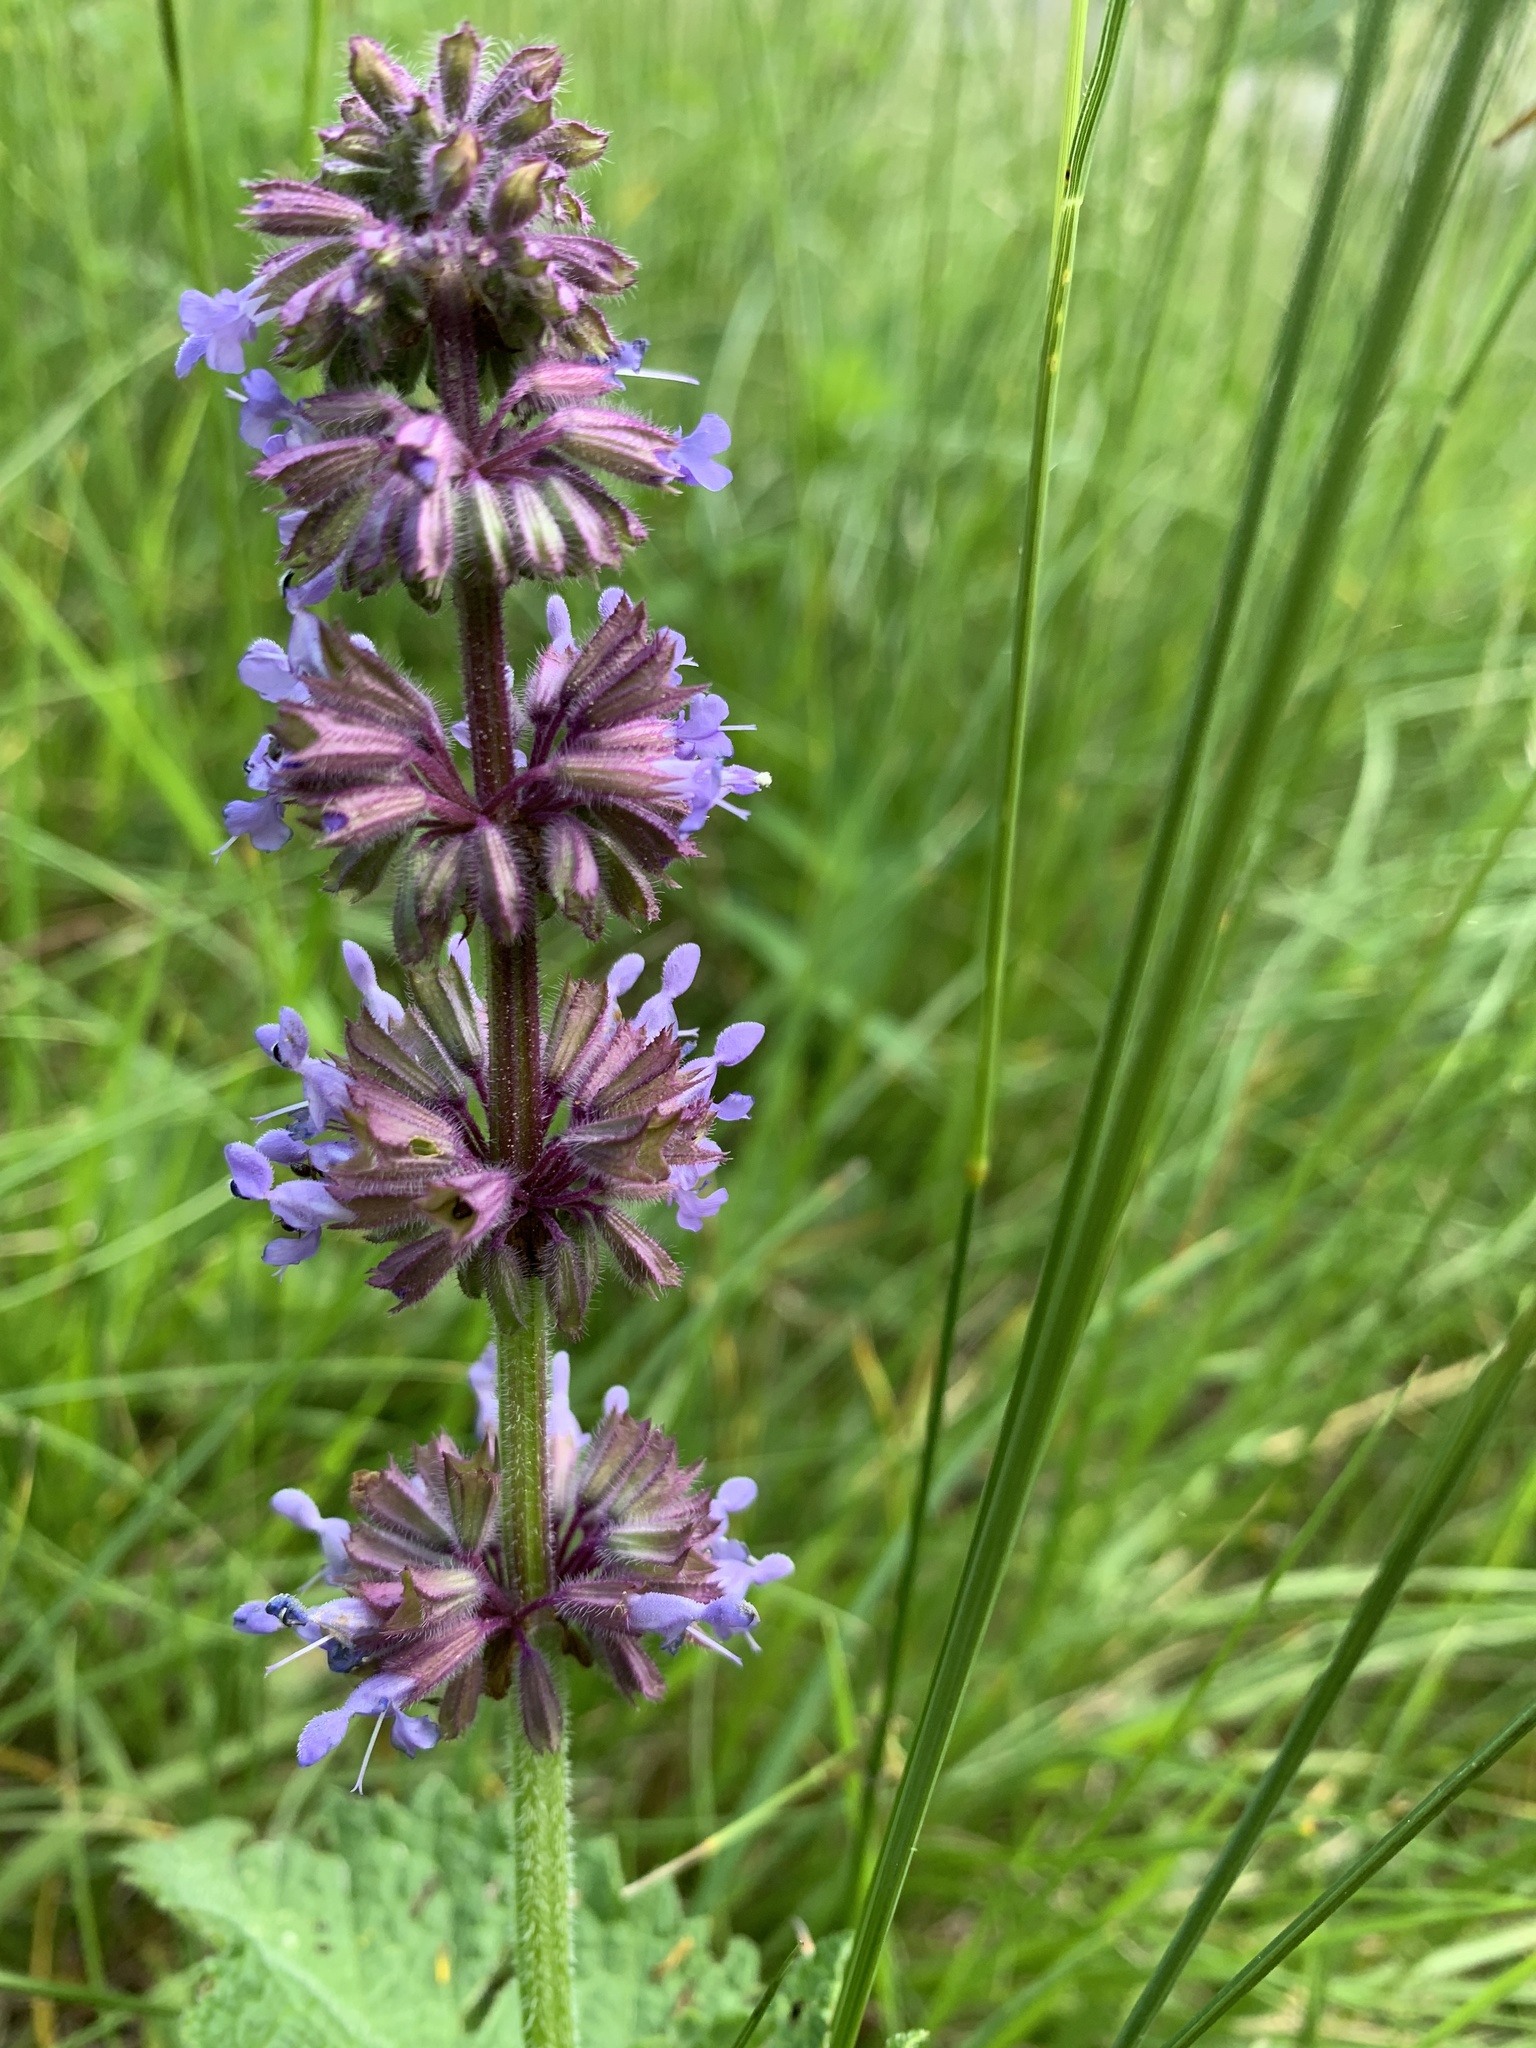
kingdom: Plantae
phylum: Tracheophyta
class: Magnoliopsida
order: Lamiales
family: Lamiaceae
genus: Salvia
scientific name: Salvia verticillata
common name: Whorled clary
